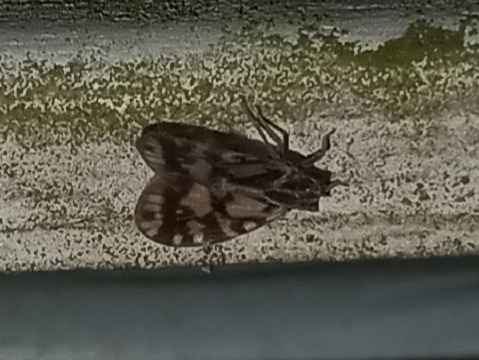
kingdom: Animalia
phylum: Arthropoda
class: Insecta
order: Hemiptera
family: Cixiidae
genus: Bothriocera
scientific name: Bothriocera cognita
